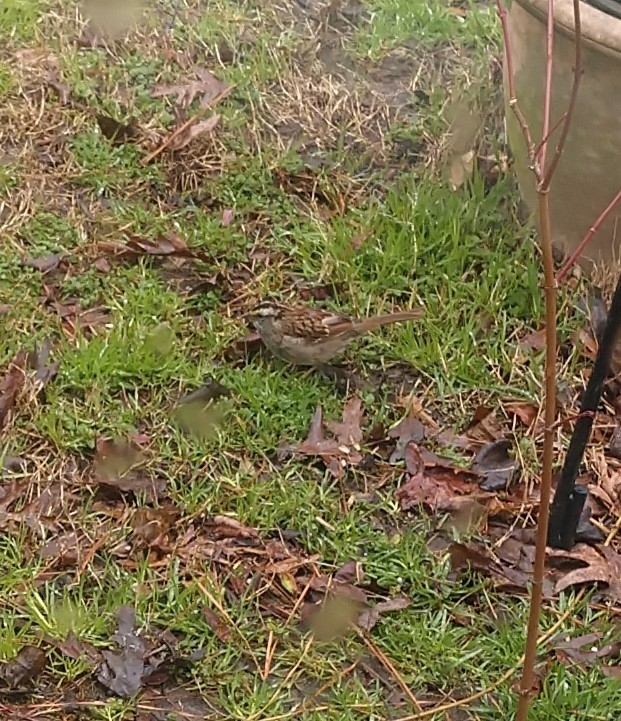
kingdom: Animalia
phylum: Chordata
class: Aves
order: Passeriformes
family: Passerellidae
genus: Zonotrichia
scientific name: Zonotrichia albicollis
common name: White-throated sparrow
